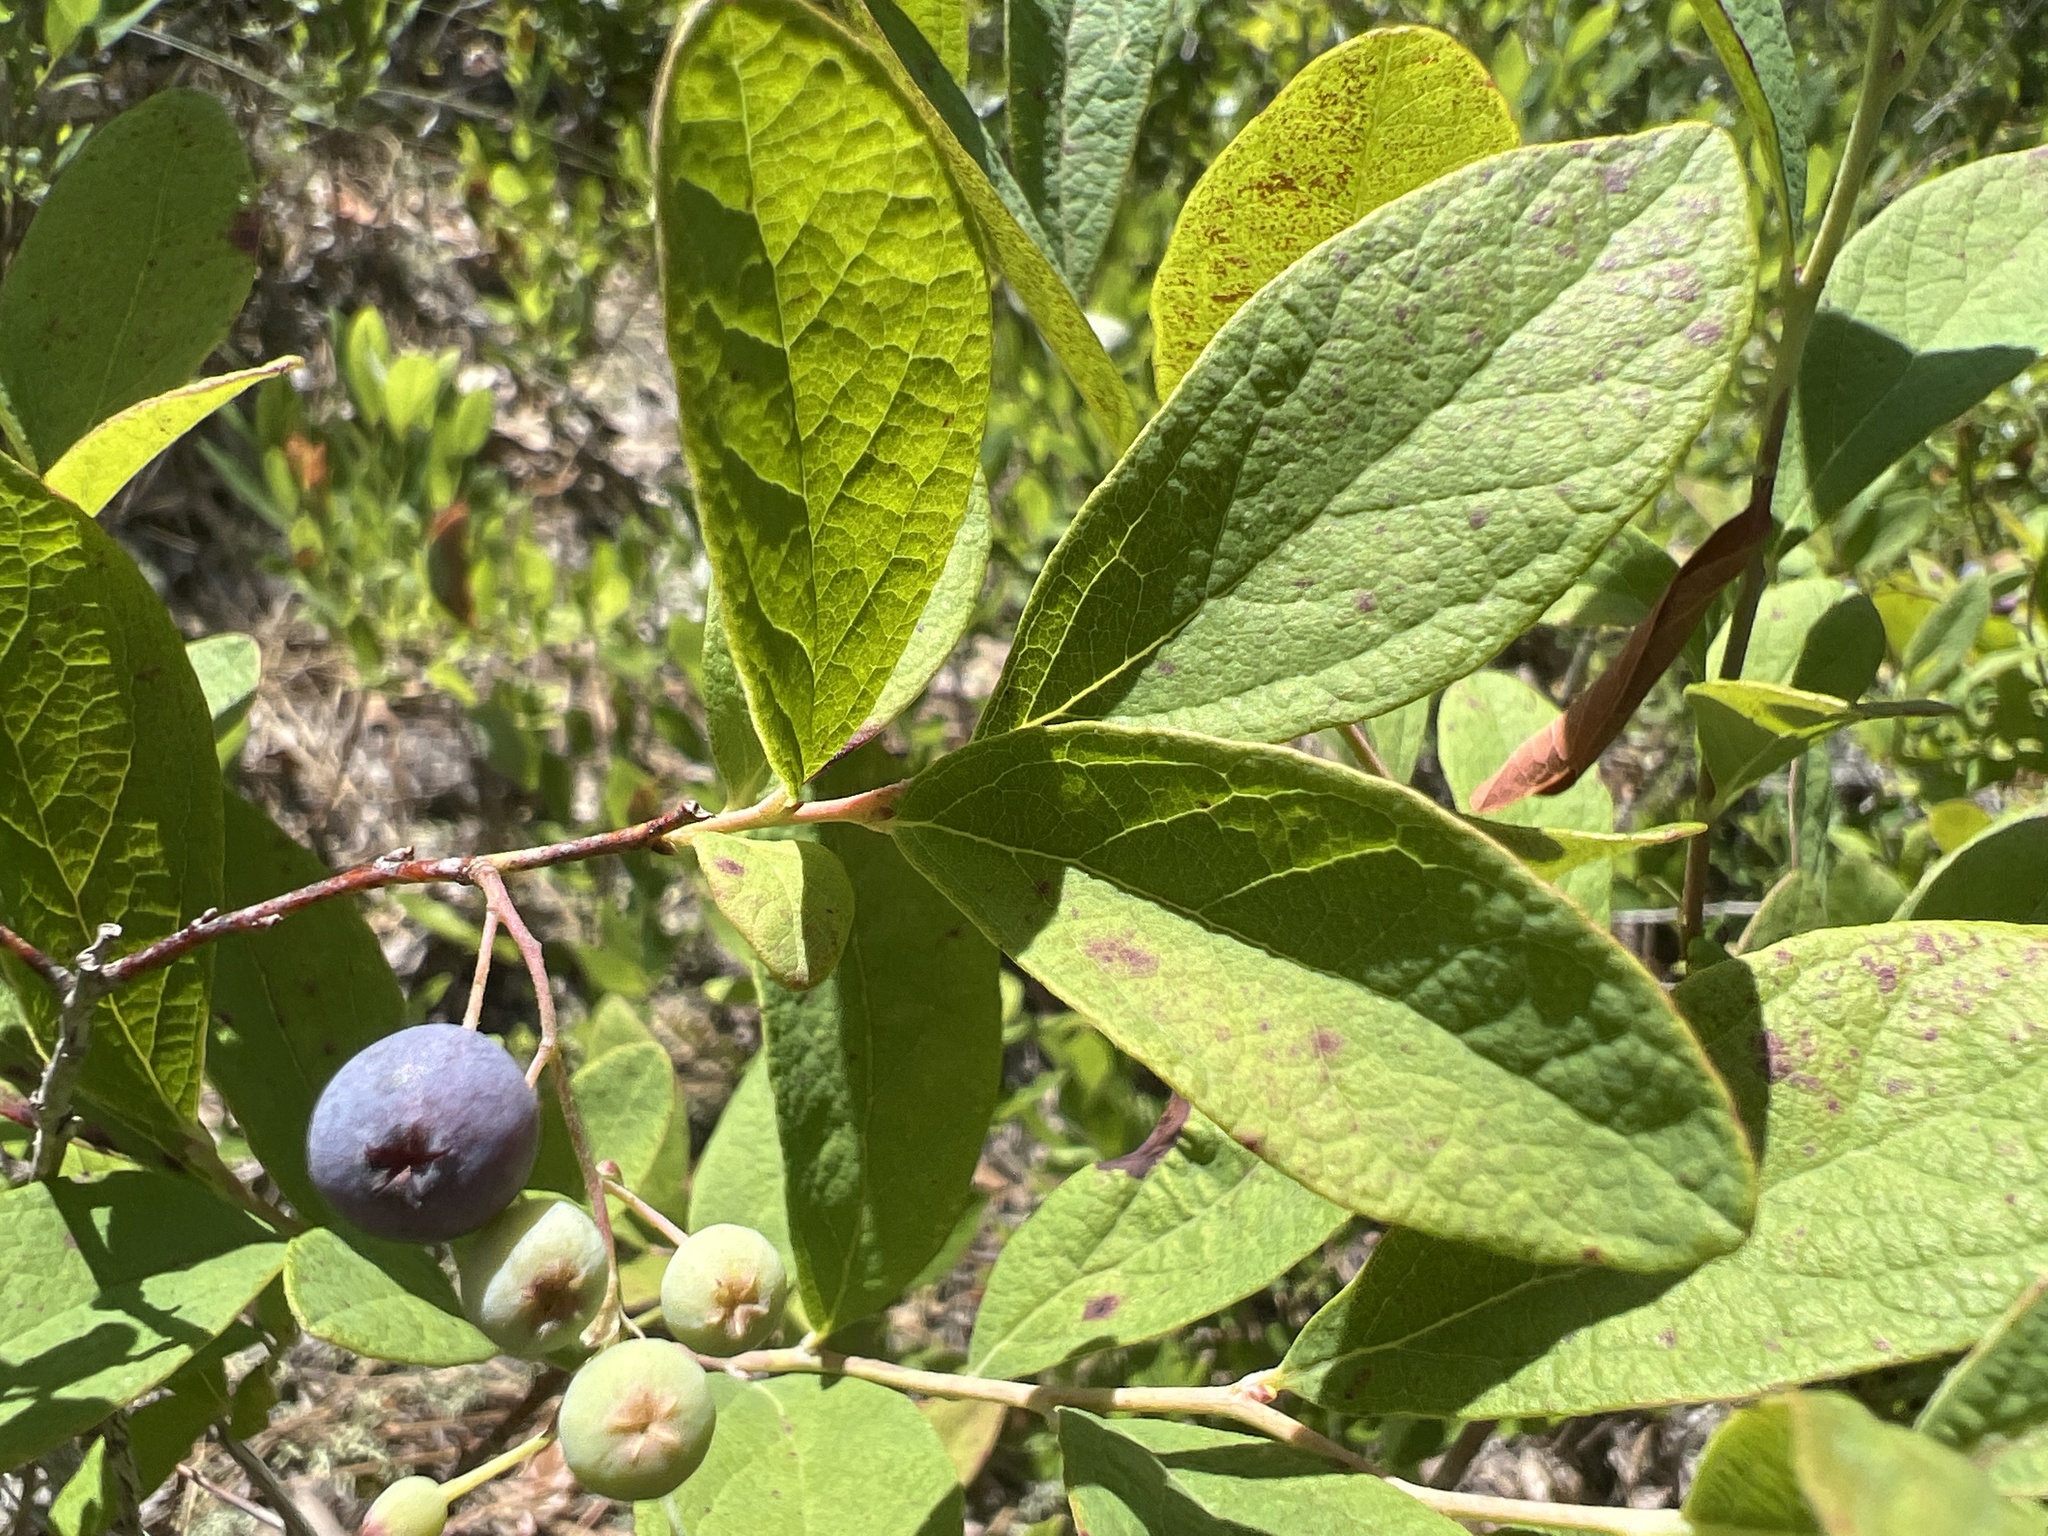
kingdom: Plantae
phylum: Tracheophyta
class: Magnoliopsida
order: Ericales
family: Ericaceae
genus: Gaylussacia
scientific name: Gaylussacia frondosa
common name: Dangleberry
